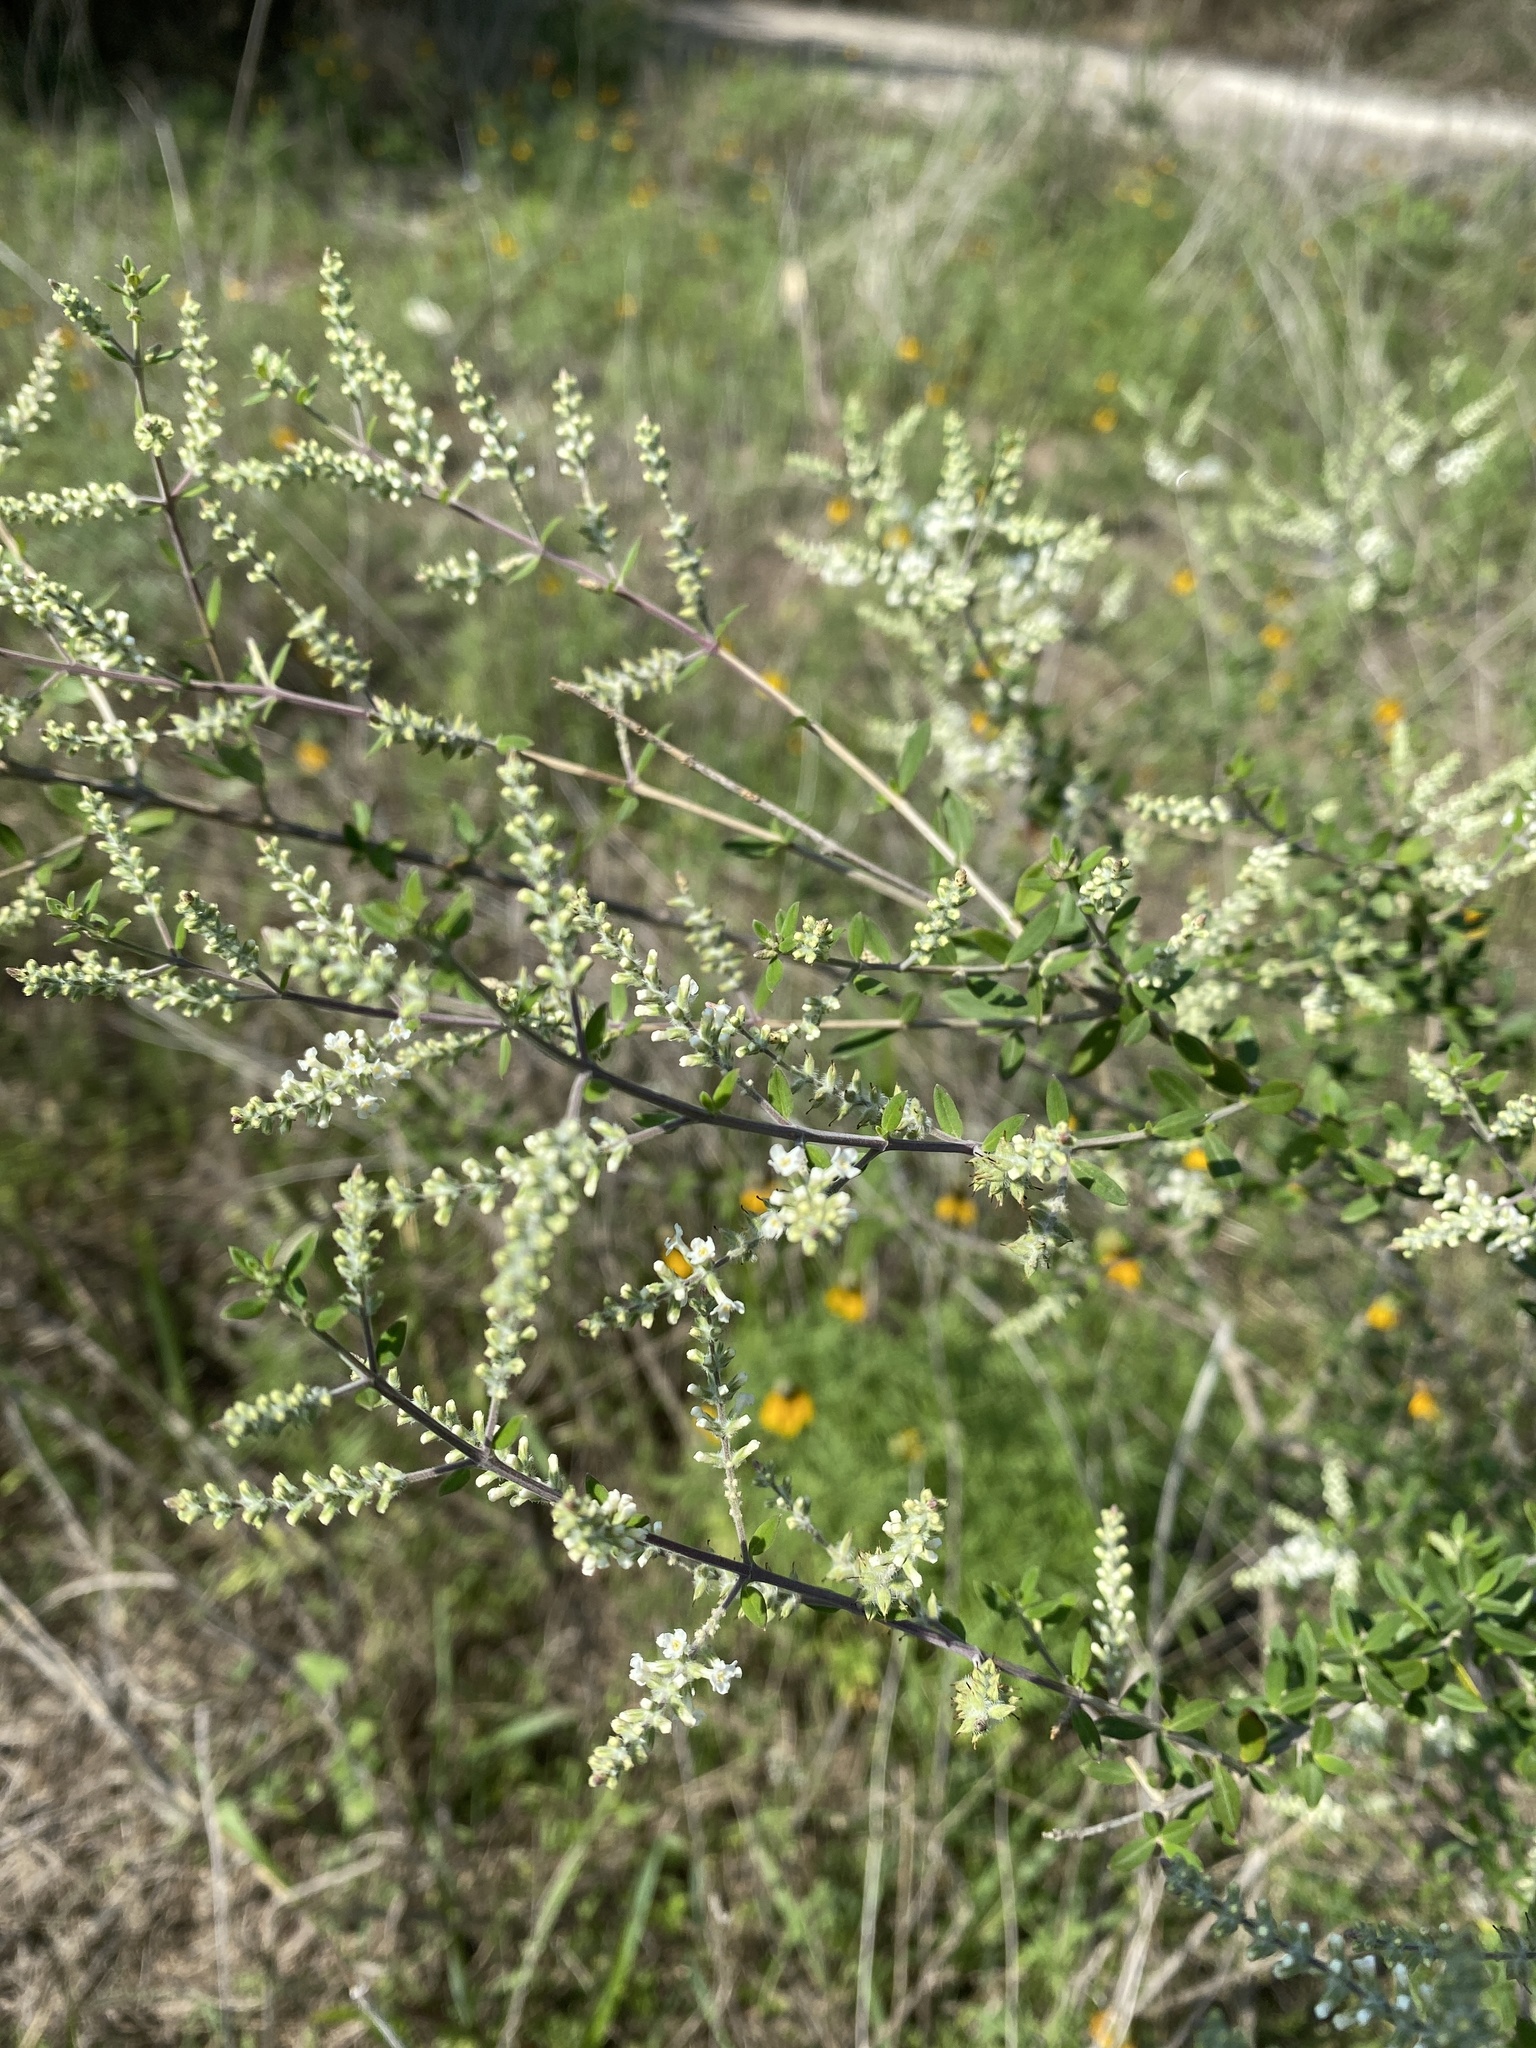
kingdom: Plantae
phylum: Tracheophyta
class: Magnoliopsida
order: Lamiales
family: Verbenaceae
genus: Aloysia
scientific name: Aloysia gratissima
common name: Common bee-brush
